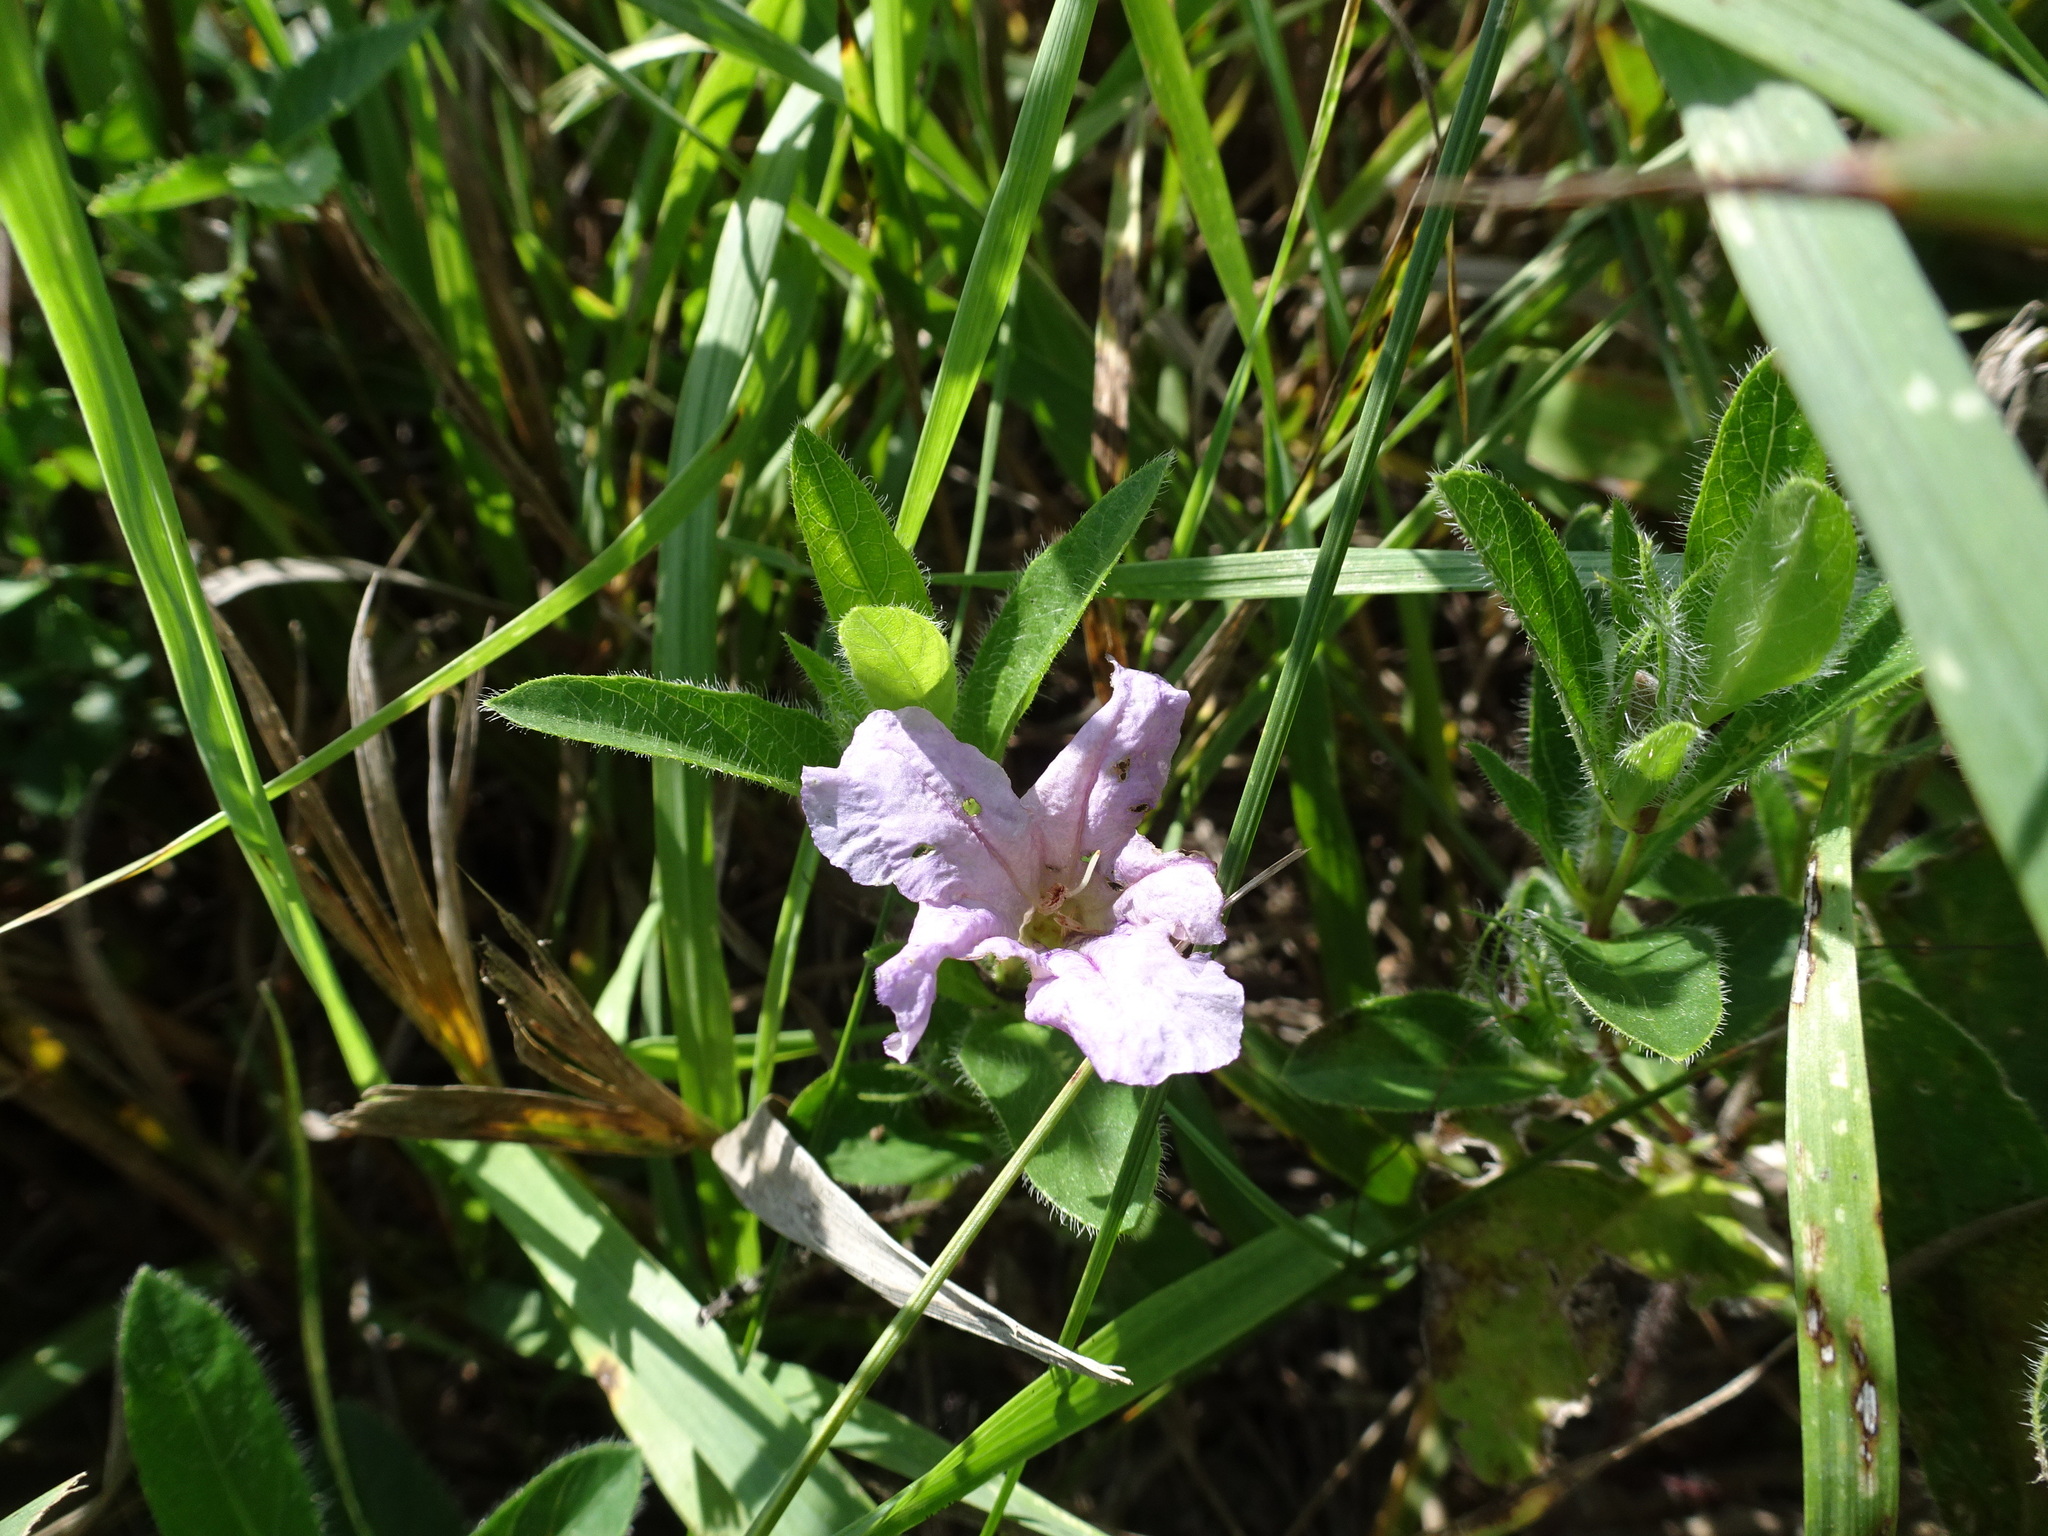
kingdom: Plantae
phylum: Tracheophyta
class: Magnoliopsida
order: Lamiales
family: Acanthaceae
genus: Ruellia
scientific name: Ruellia humilis
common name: Fringe-leaf ruellia
